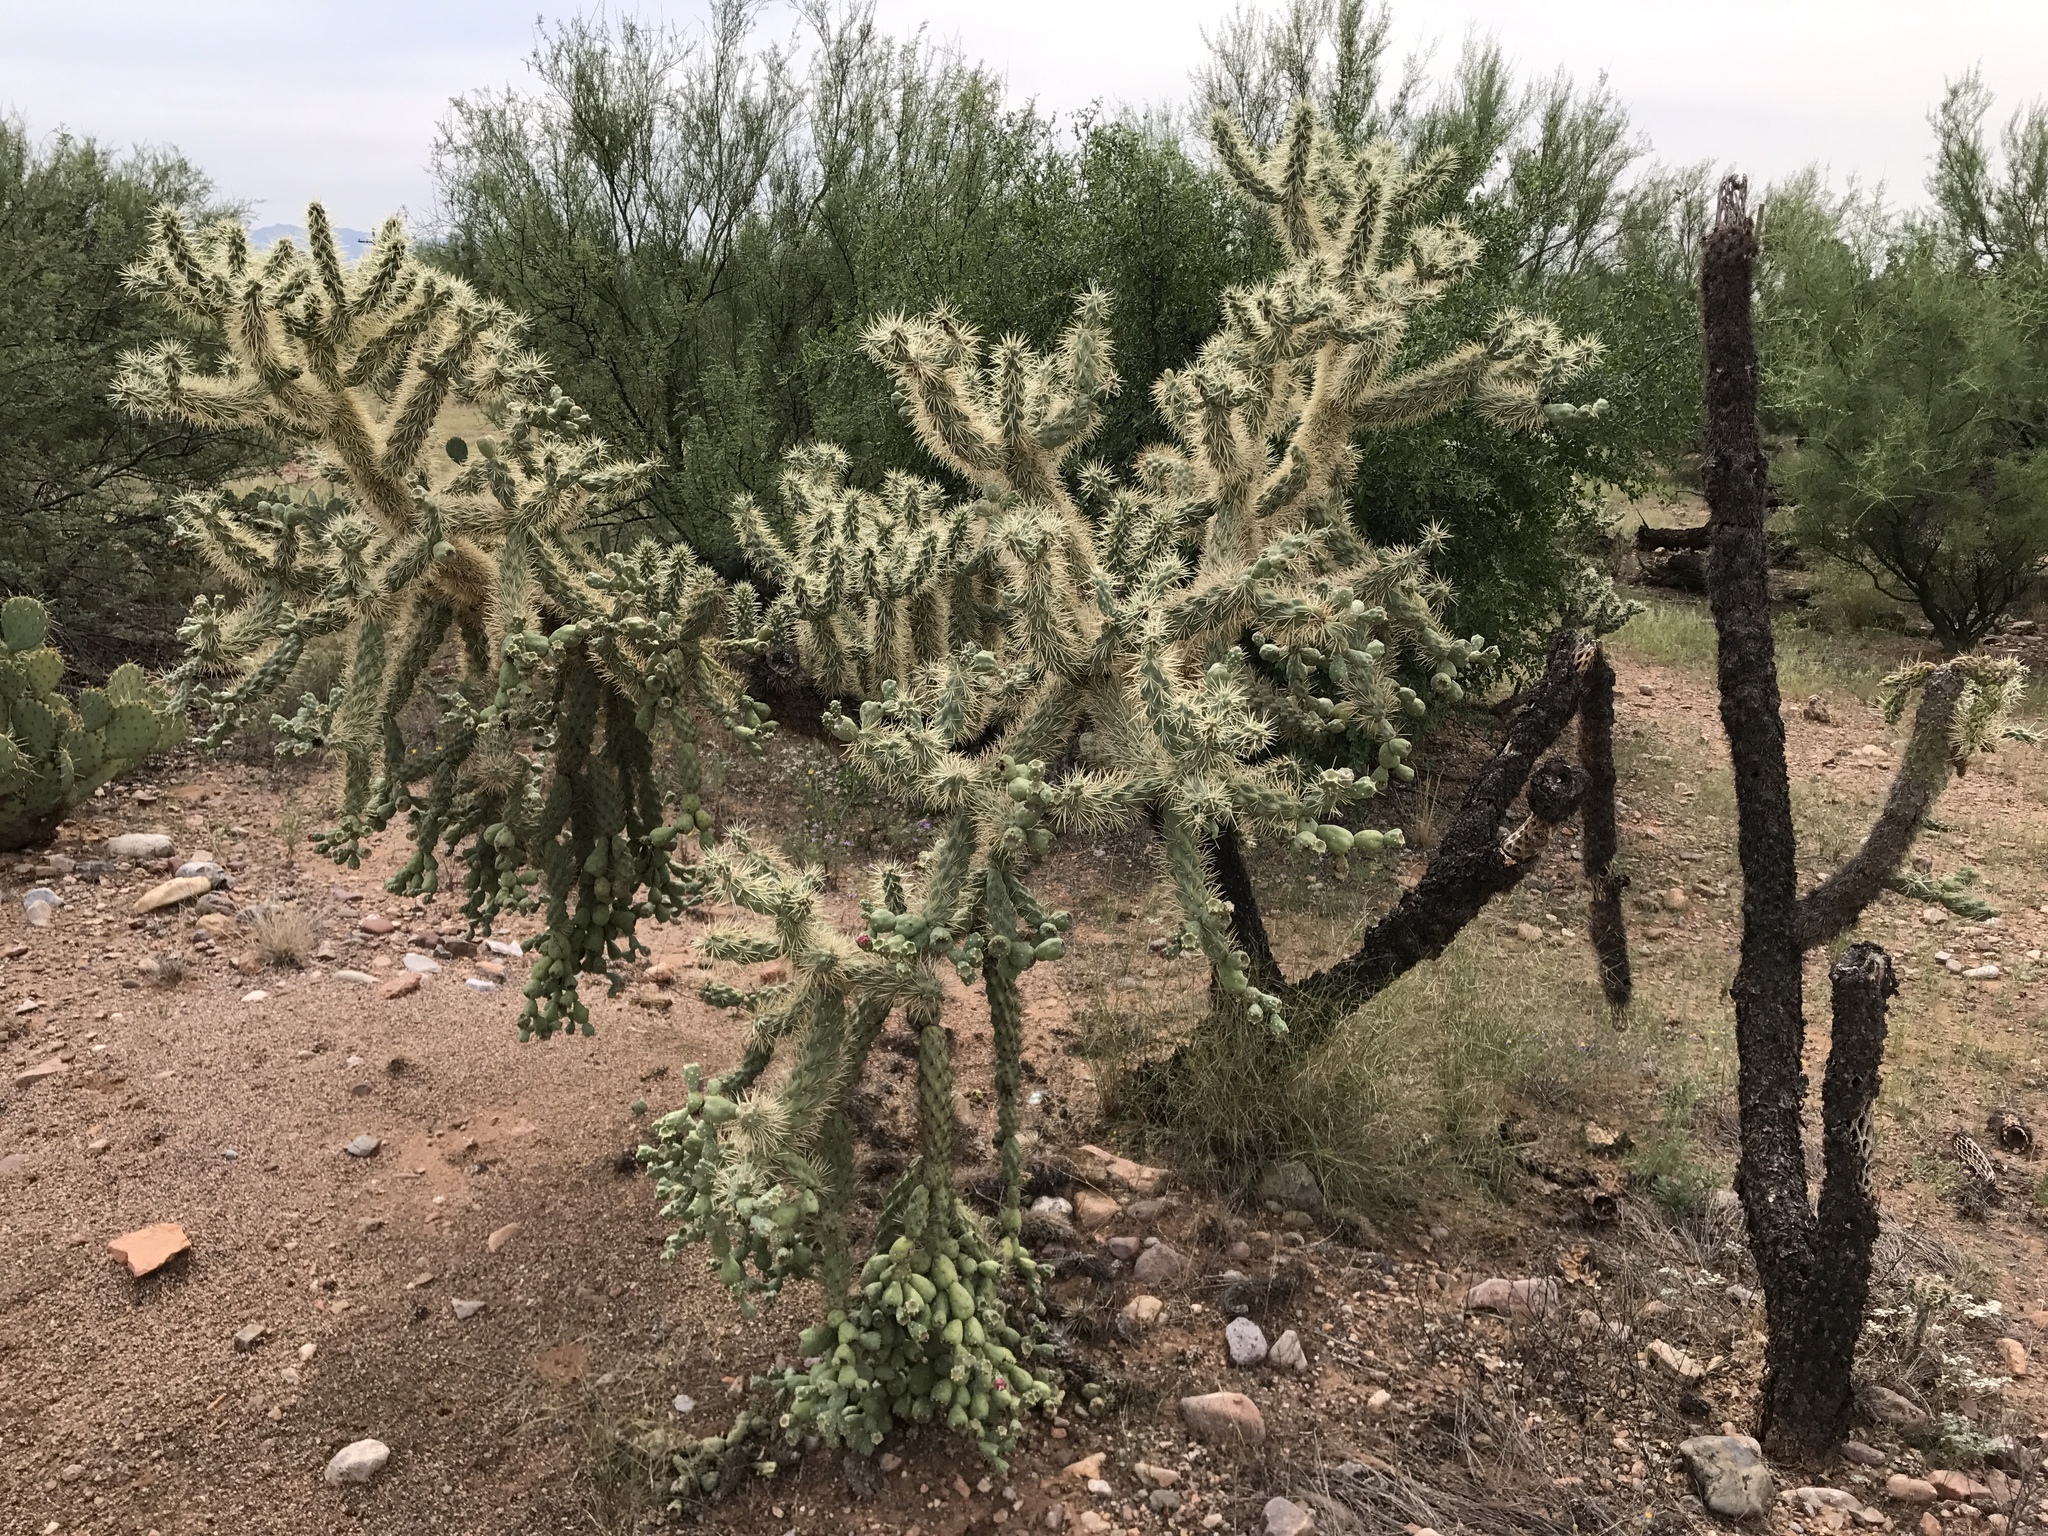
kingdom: Plantae
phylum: Tracheophyta
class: Magnoliopsida
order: Caryophyllales
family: Cactaceae
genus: Cylindropuntia
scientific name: Cylindropuntia fulgida
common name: Jumping cholla
